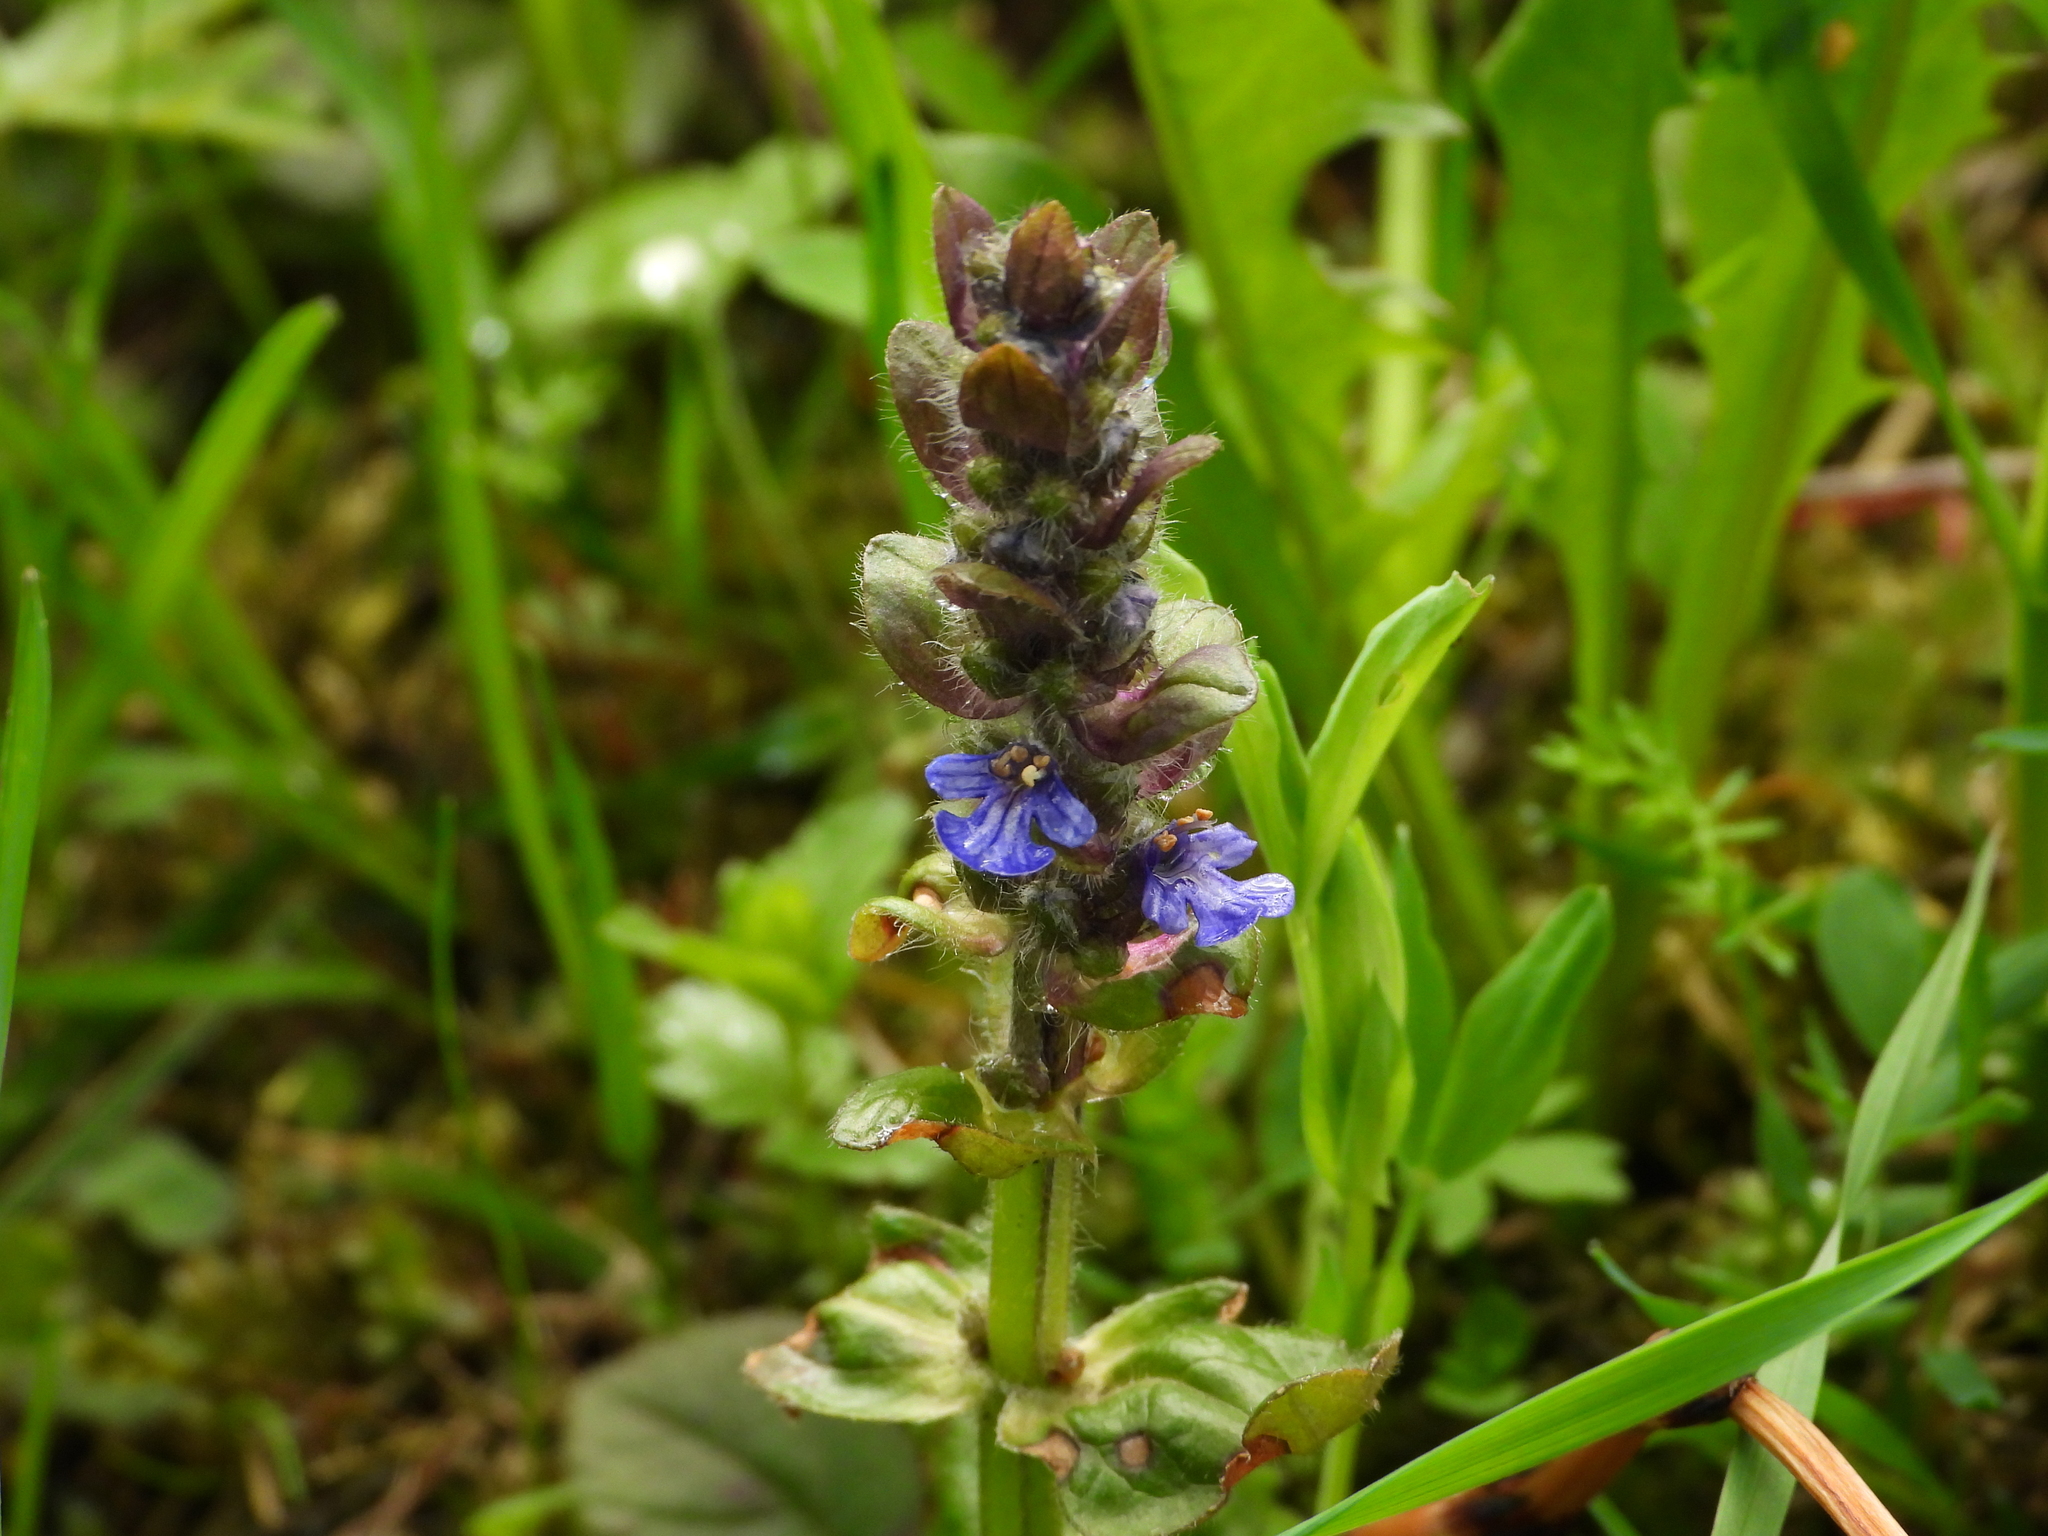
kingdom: Plantae
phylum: Tracheophyta
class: Magnoliopsida
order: Lamiales
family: Lamiaceae
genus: Ajuga
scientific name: Ajuga reptans
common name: Bugle
